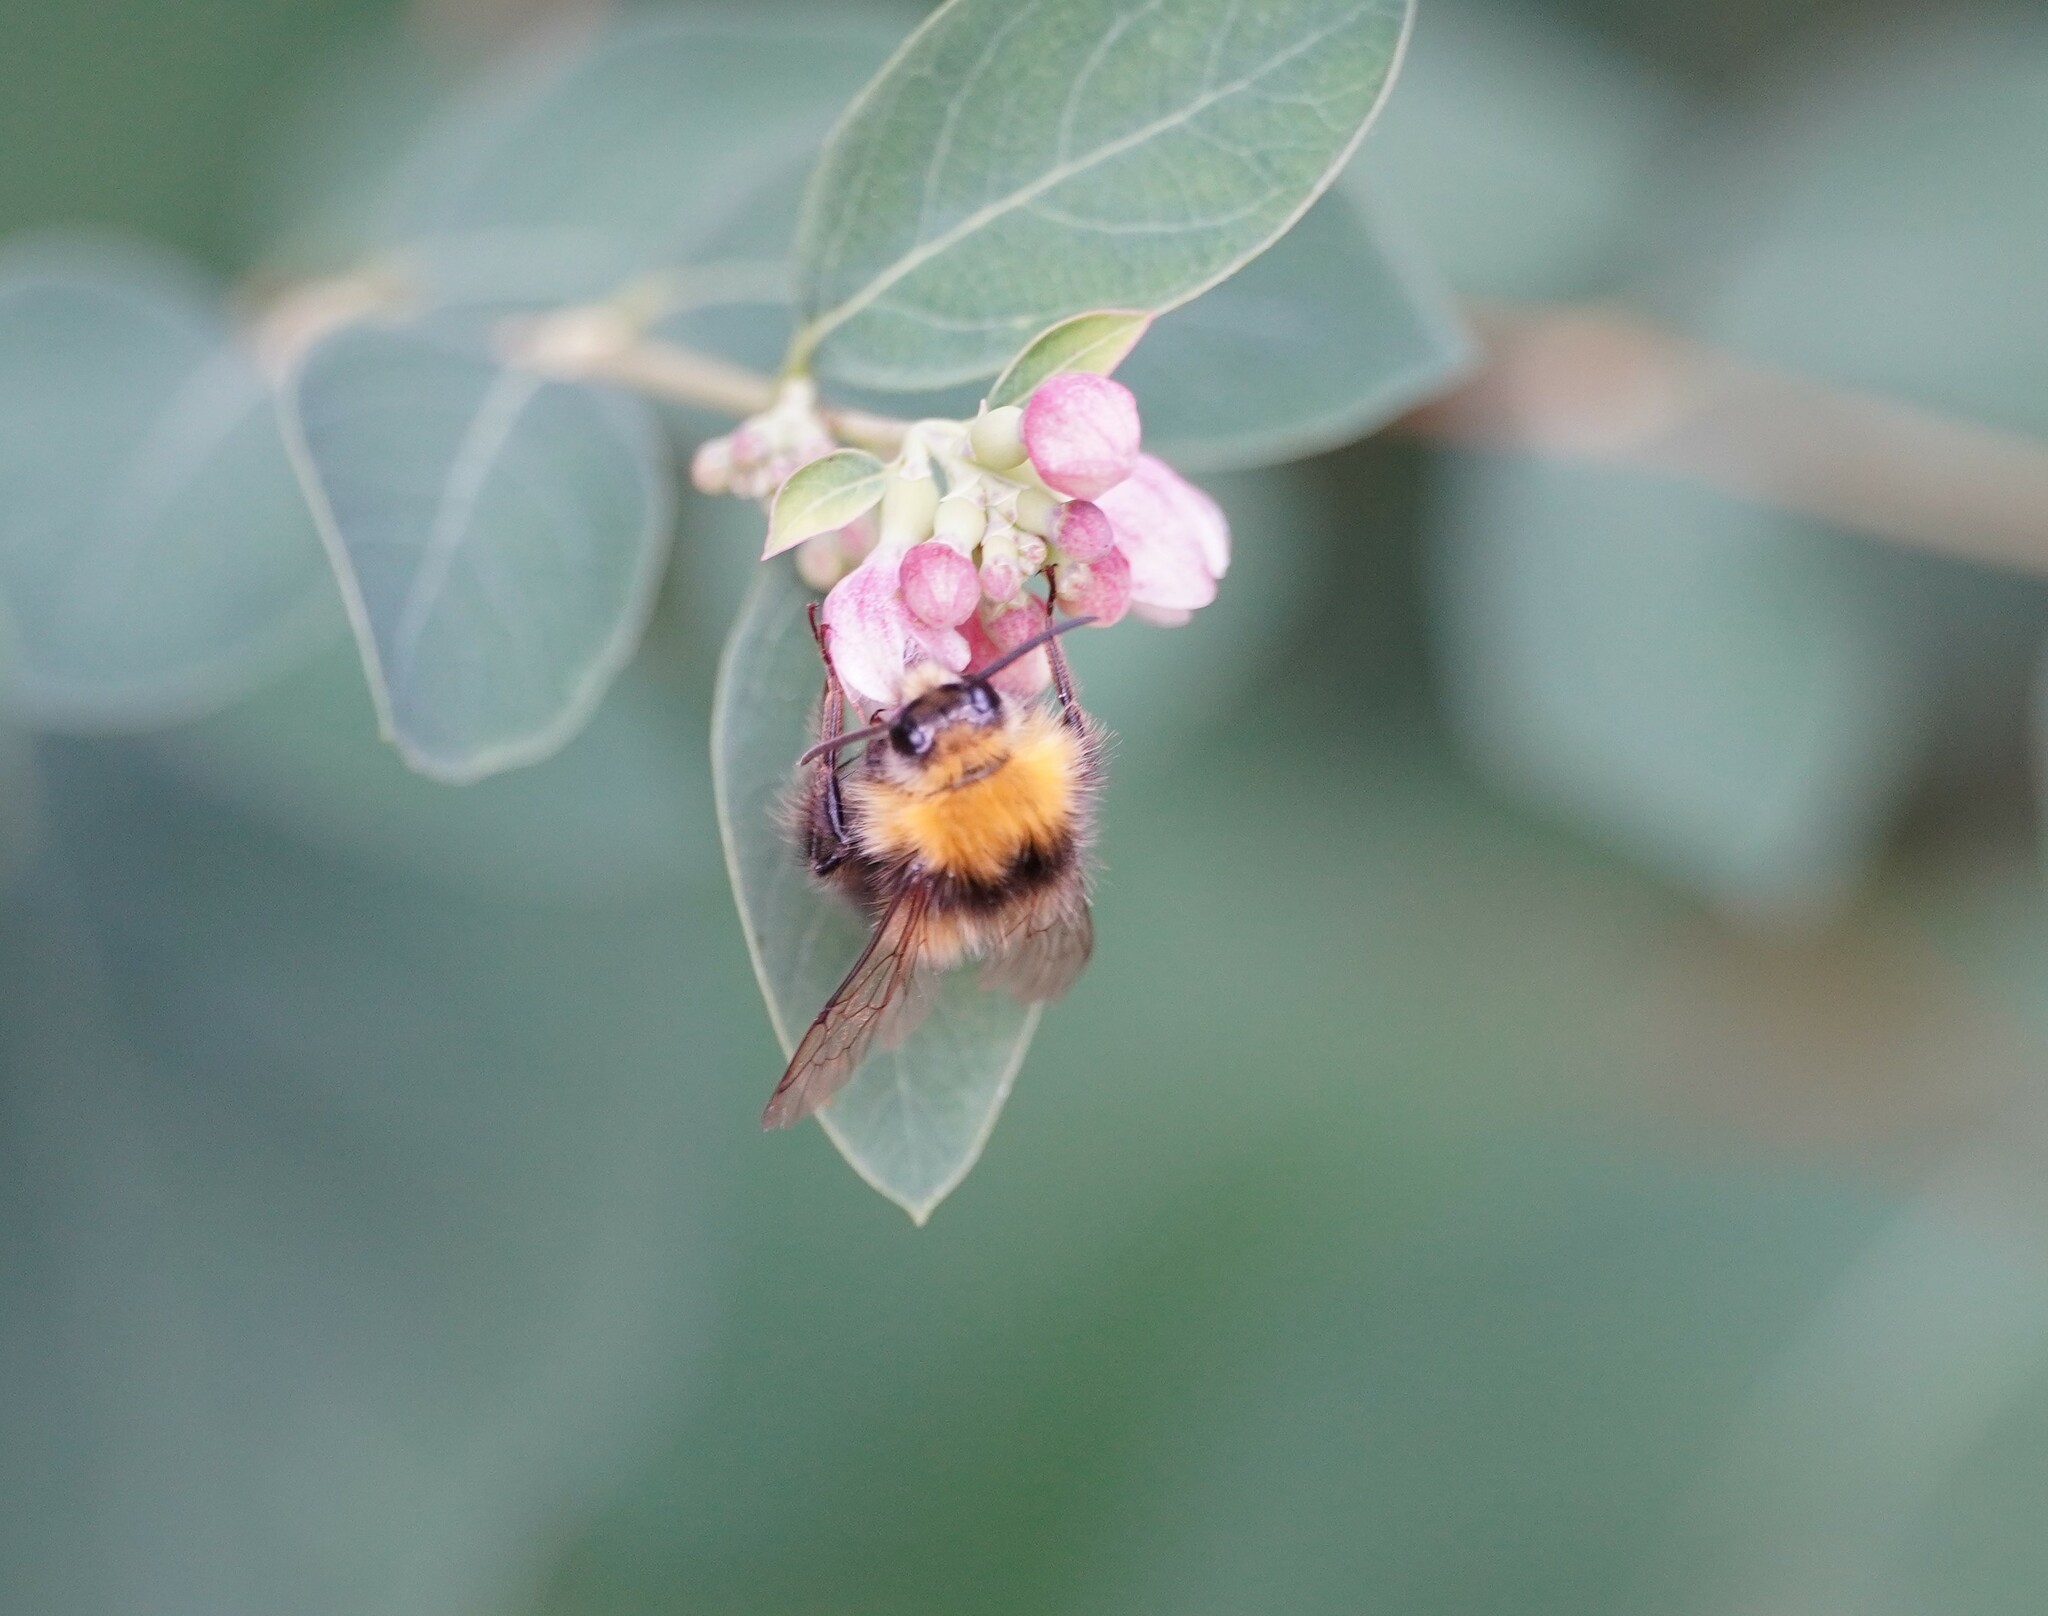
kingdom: Animalia
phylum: Arthropoda
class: Insecta
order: Hymenoptera
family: Apidae
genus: Bombus
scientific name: Bombus pratorum
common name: Early humble-bee
